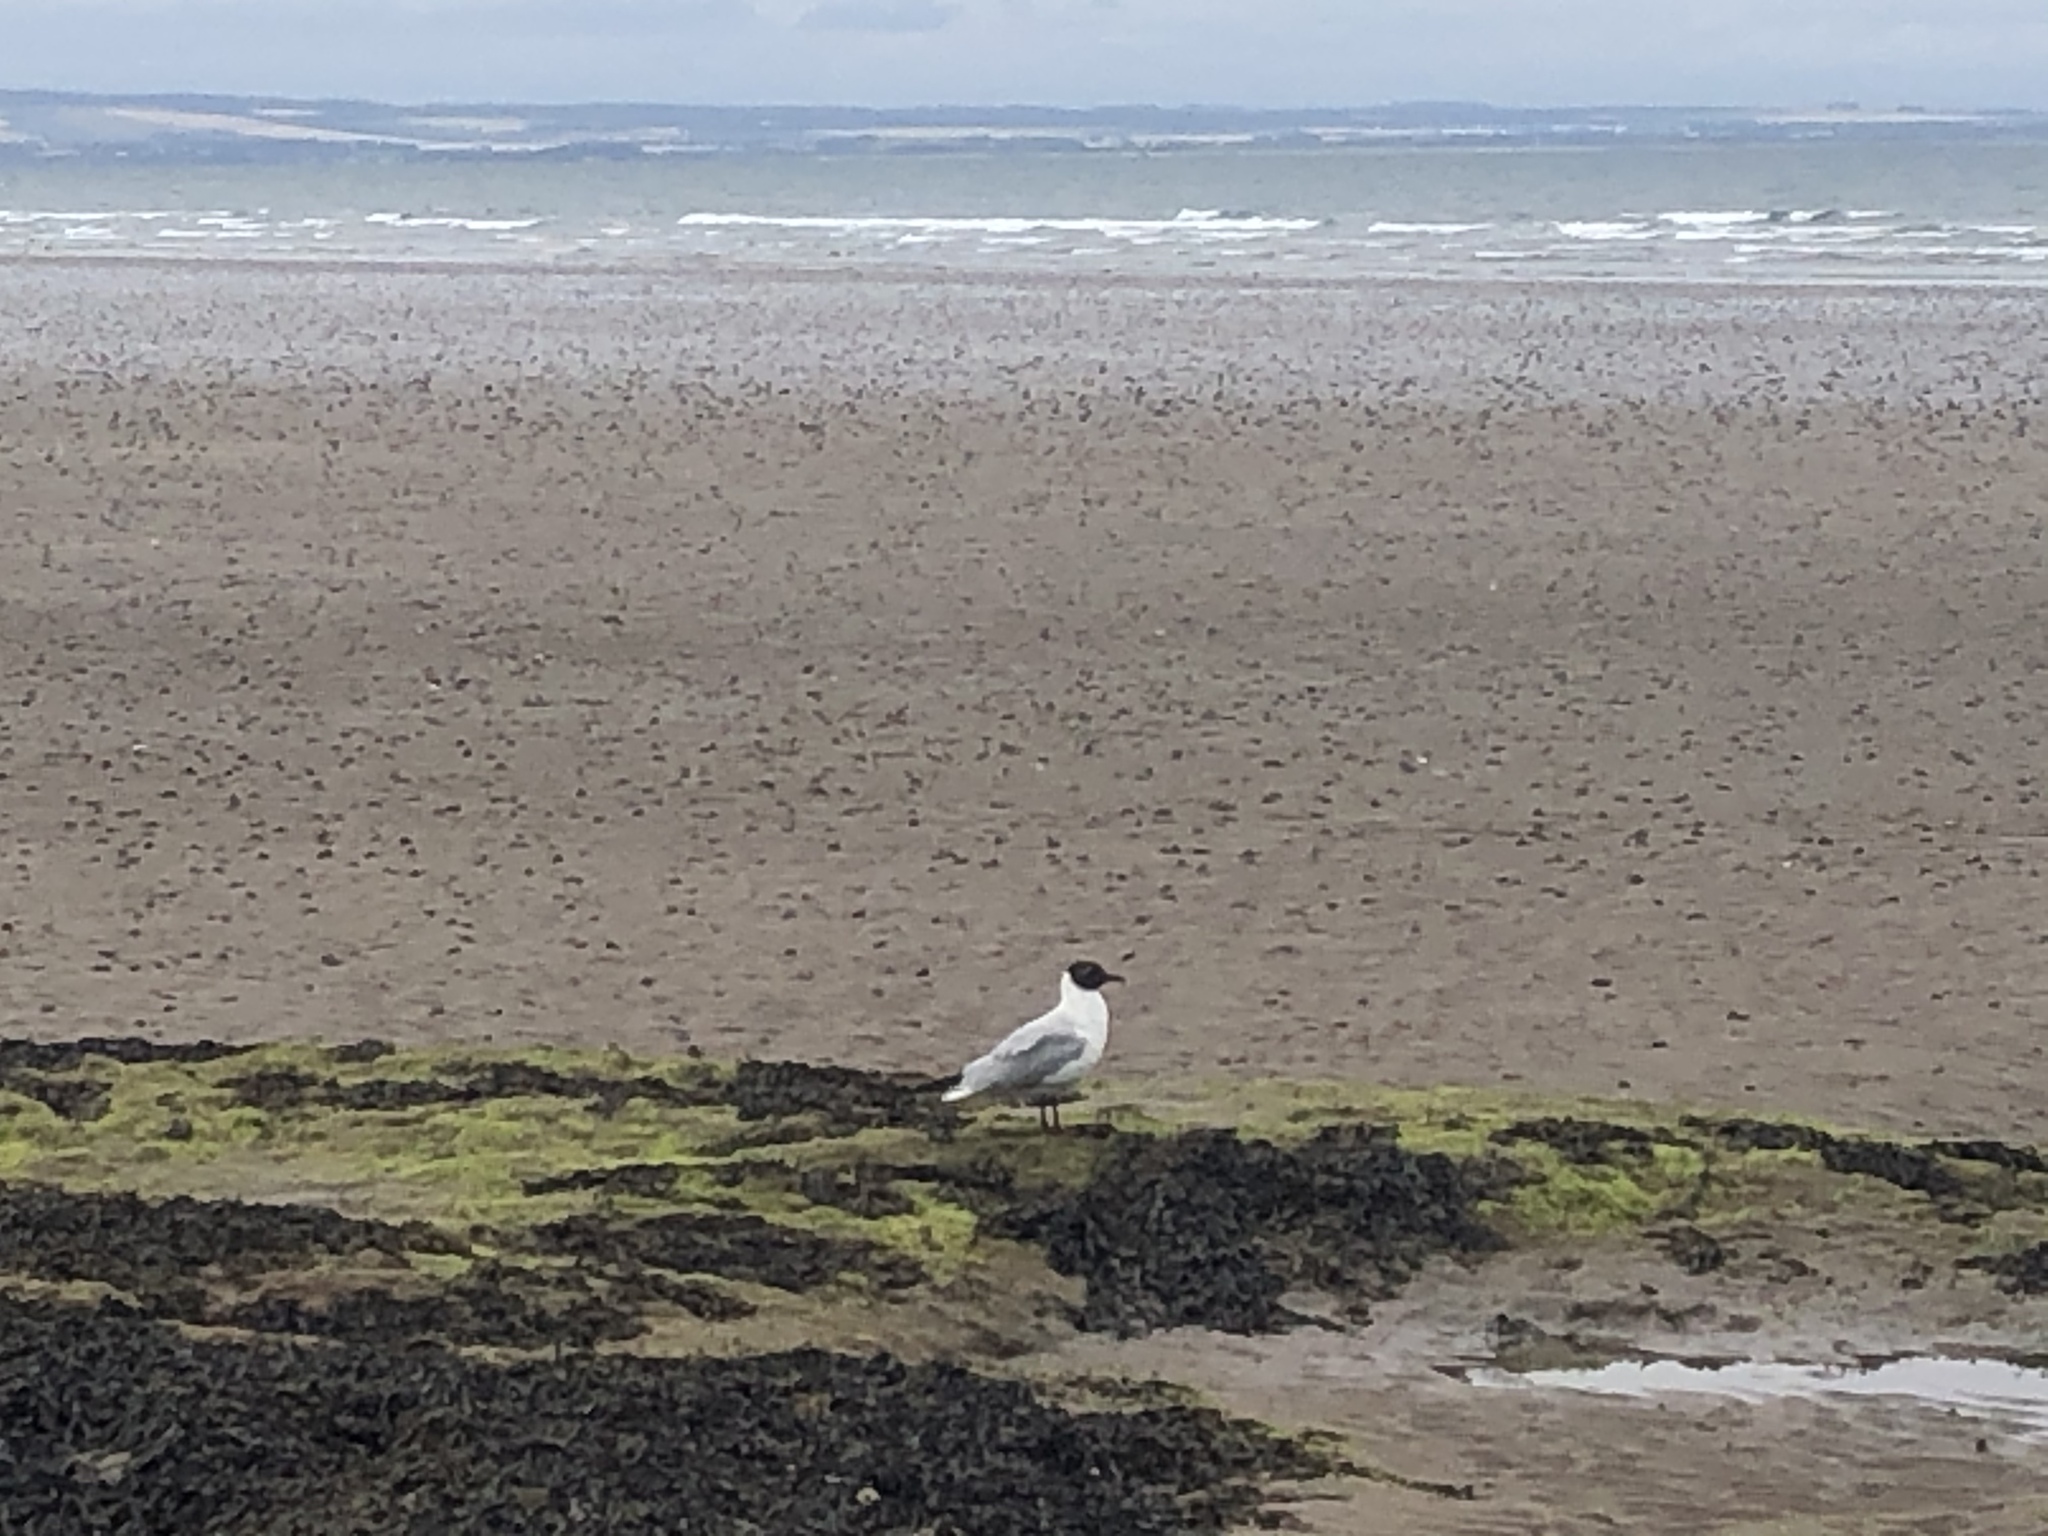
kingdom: Animalia
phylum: Chordata
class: Aves
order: Charadriiformes
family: Laridae
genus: Chroicocephalus
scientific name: Chroicocephalus ridibundus
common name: Black-headed gull
